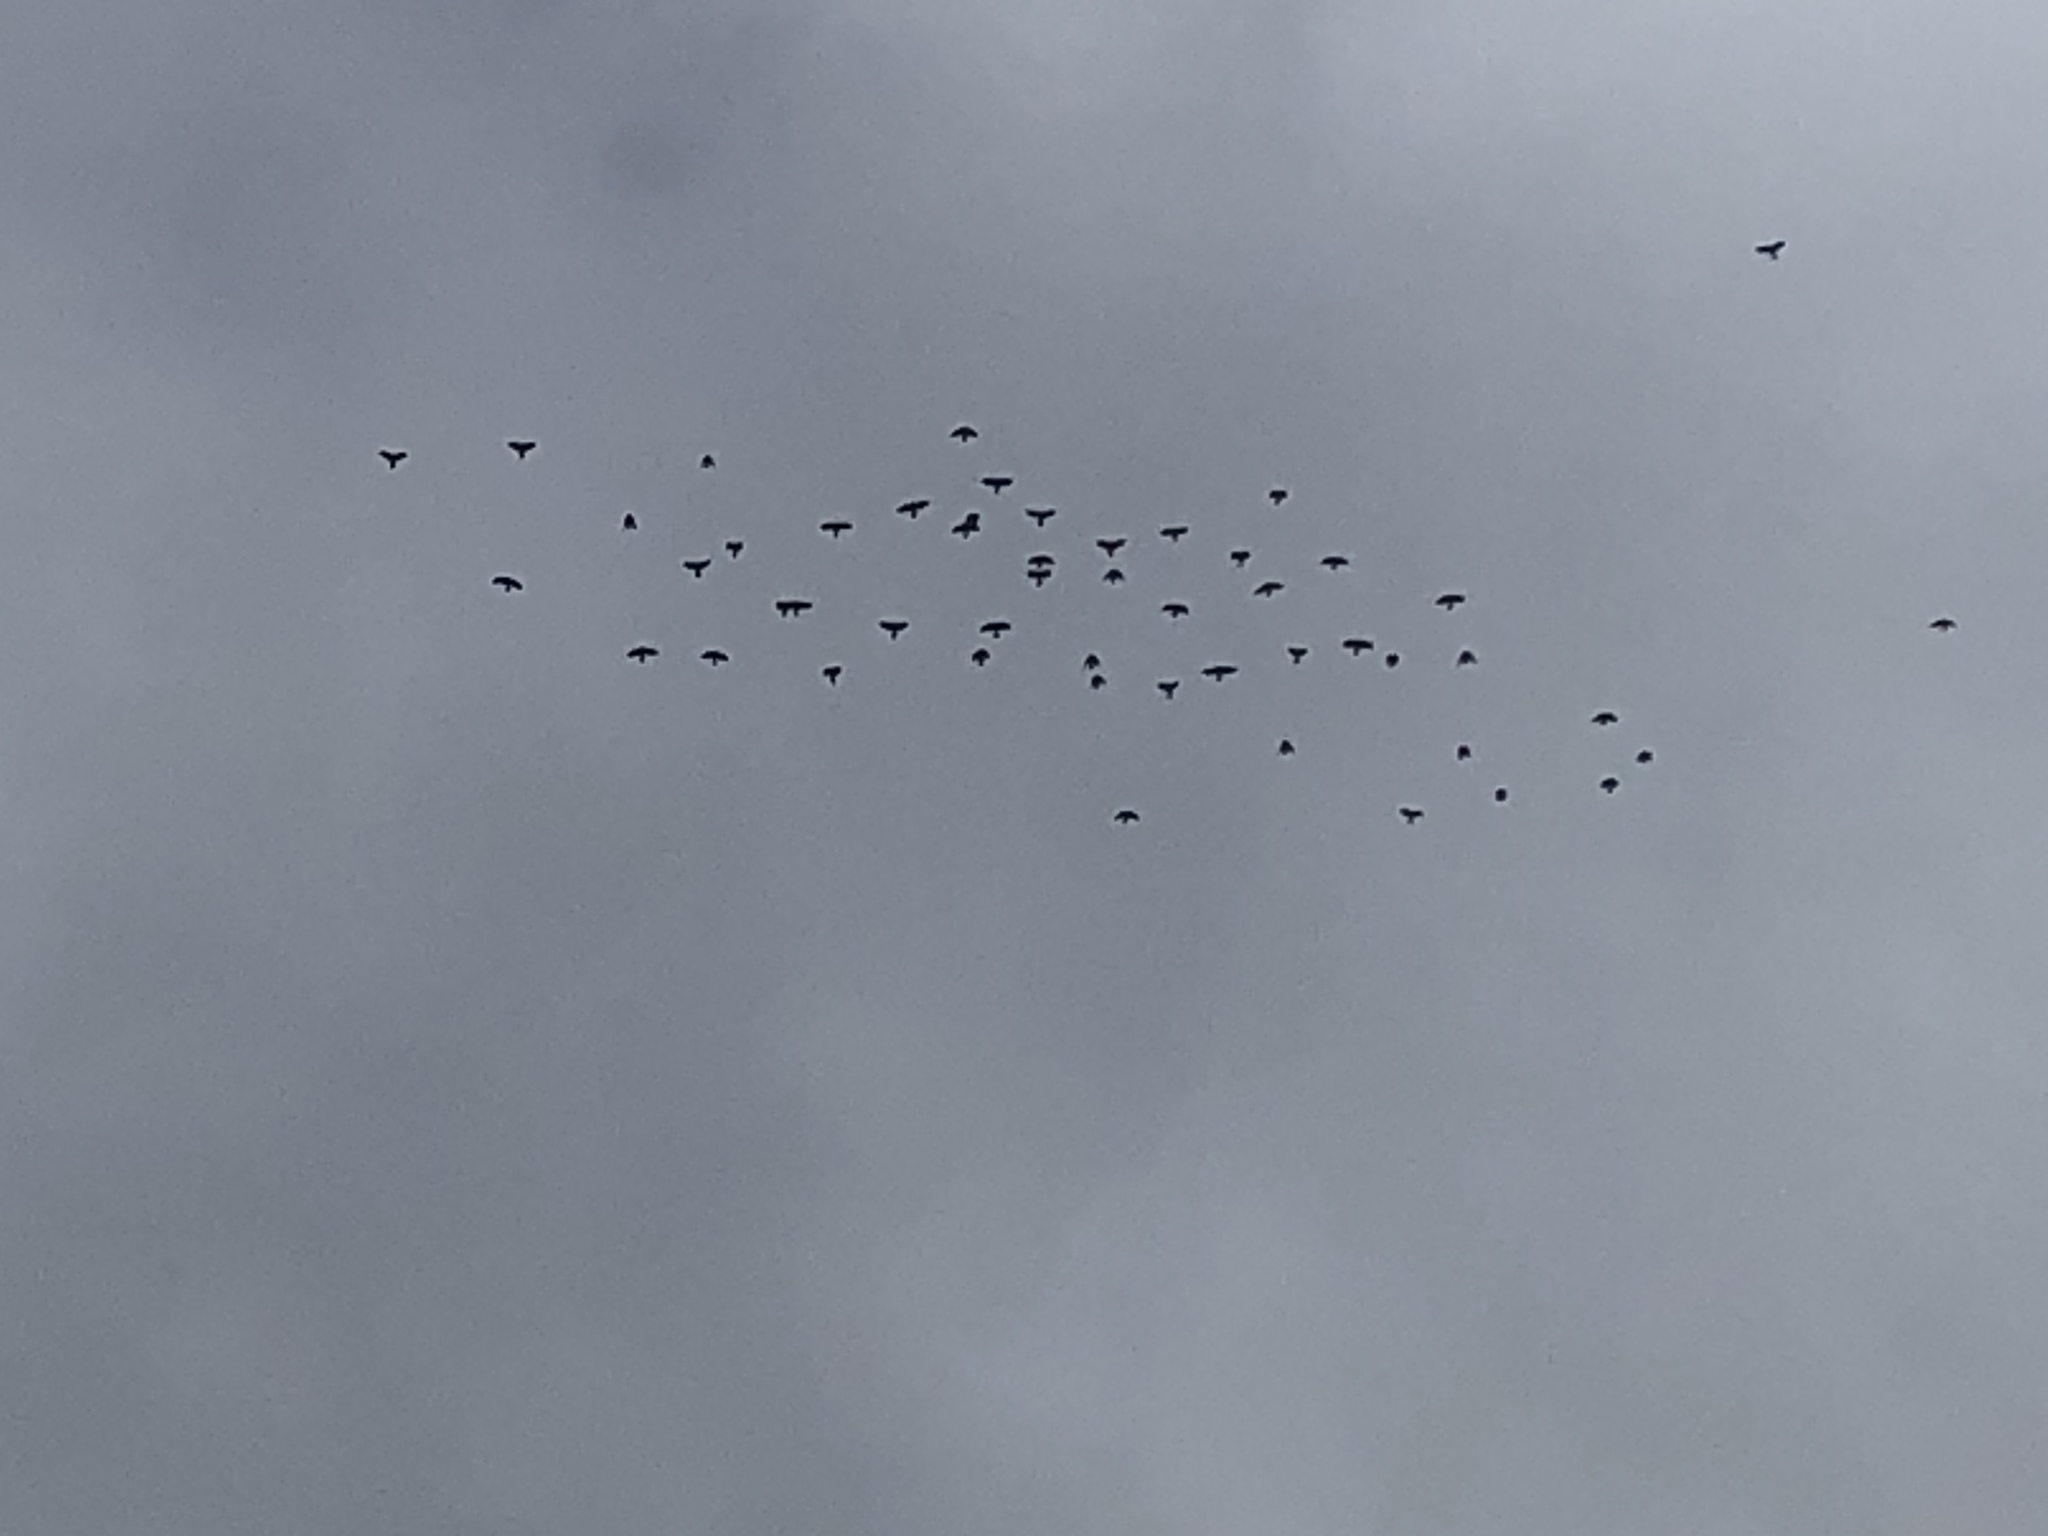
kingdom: Animalia
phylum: Chordata
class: Aves
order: Passeriformes
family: Corvidae
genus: Pyrrhocorax
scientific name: Pyrrhocorax graculus
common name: Alpine chough
